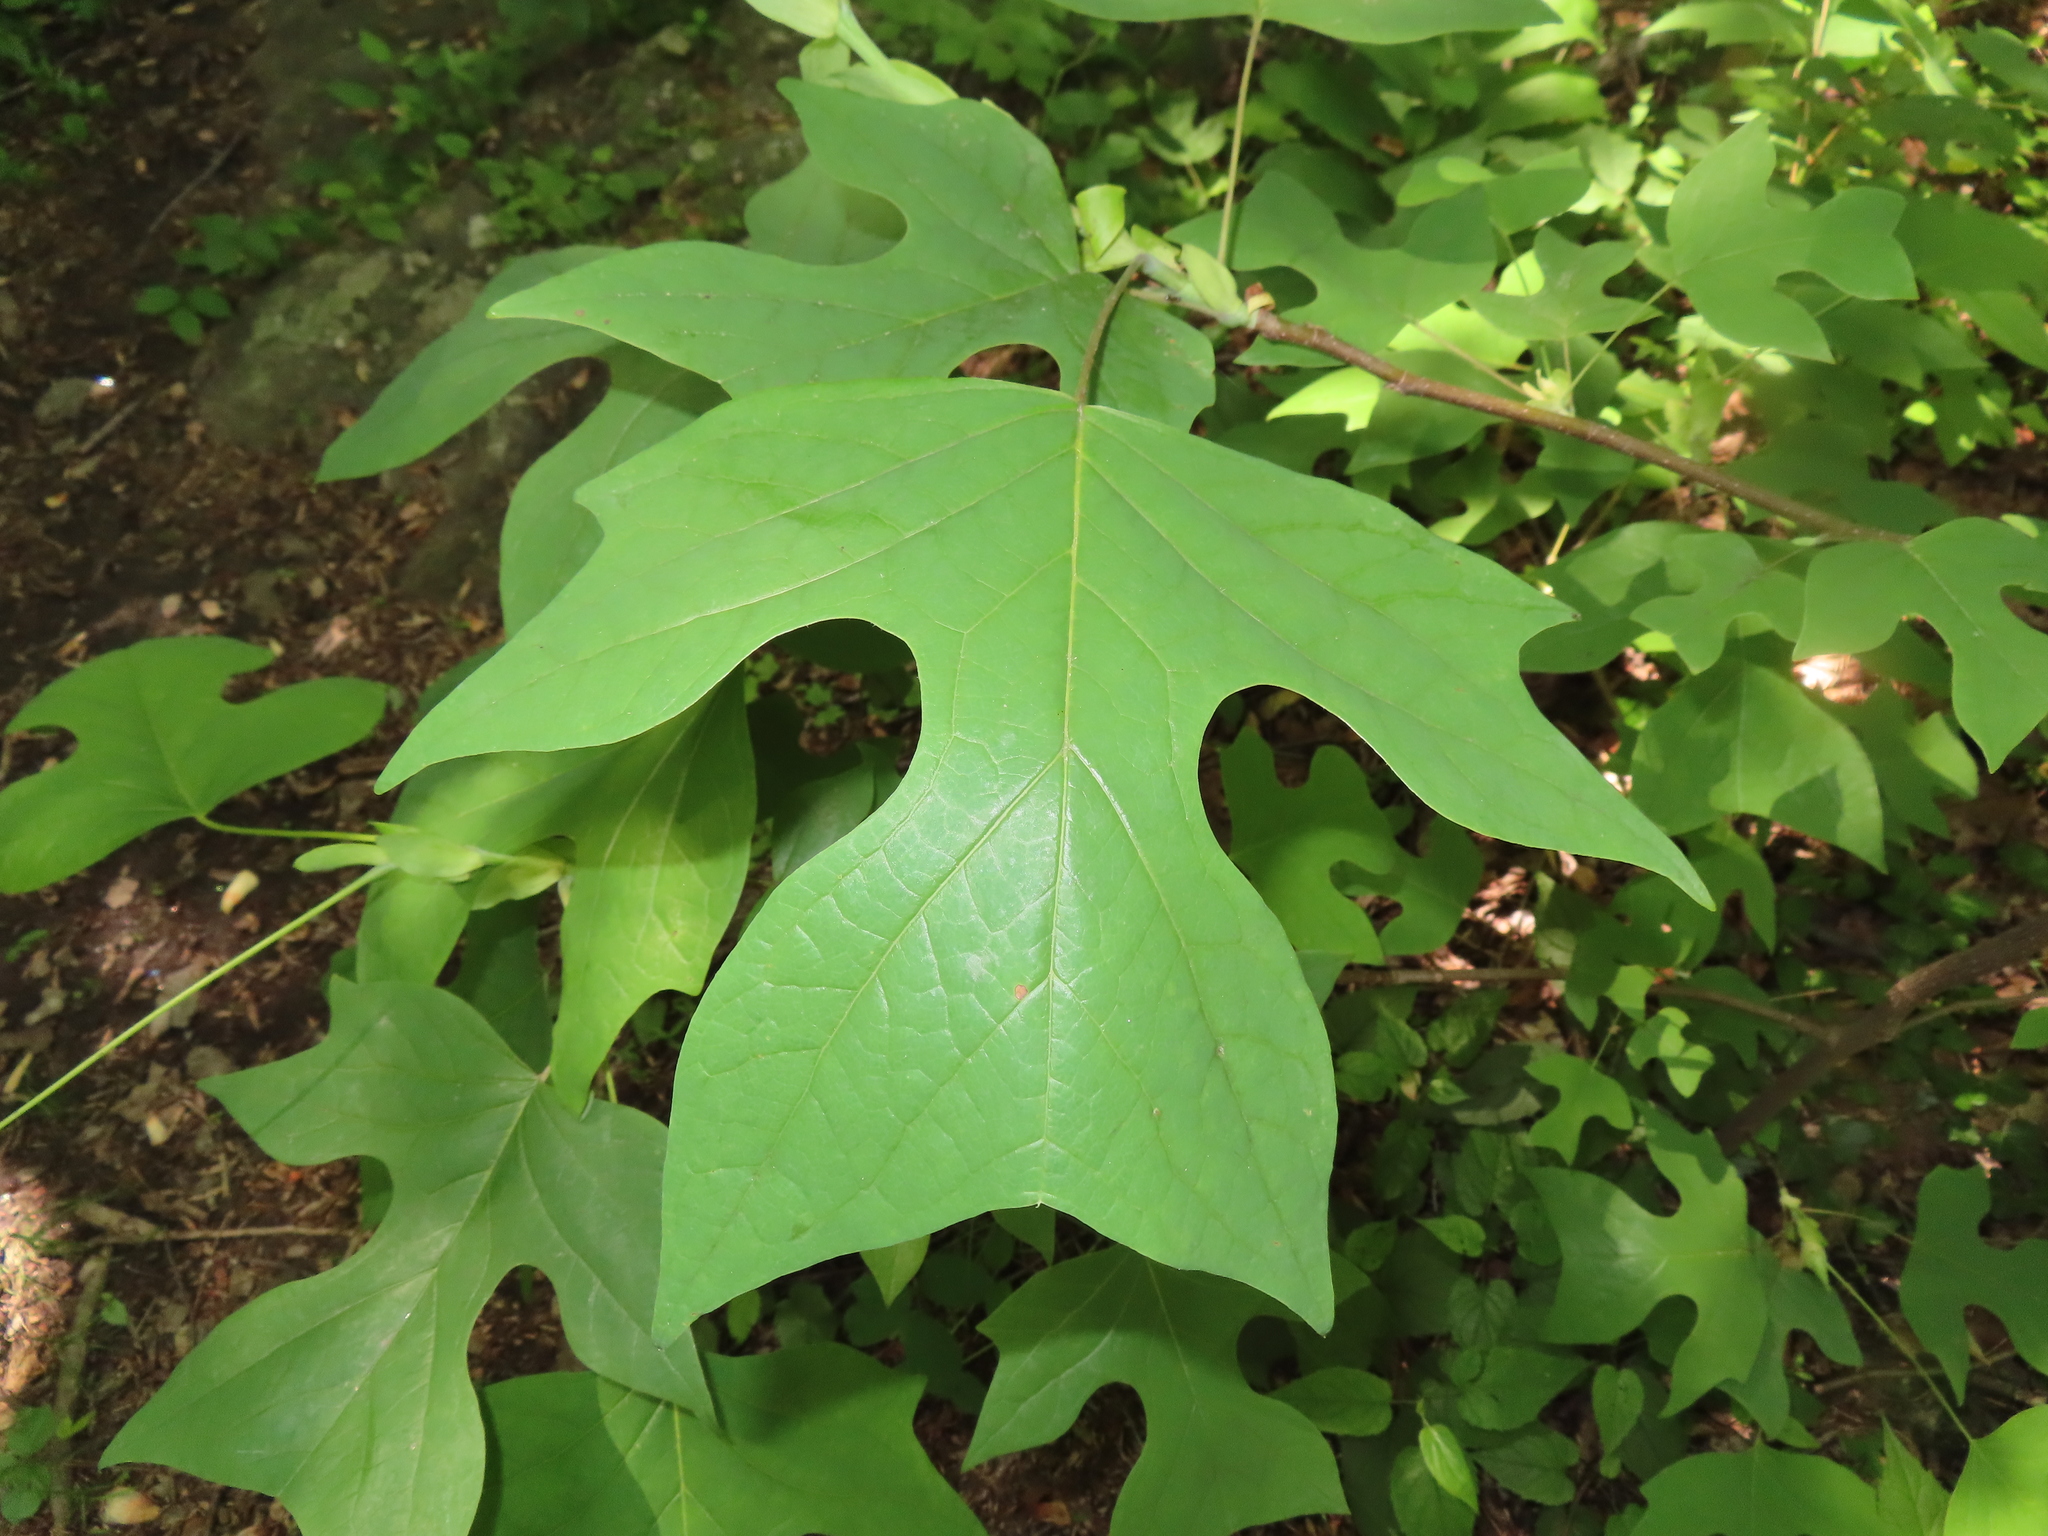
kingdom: Plantae
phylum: Tracheophyta
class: Magnoliopsida
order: Magnoliales
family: Magnoliaceae
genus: Liriodendron
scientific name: Liriodendron tulipifera
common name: Tulip tree
